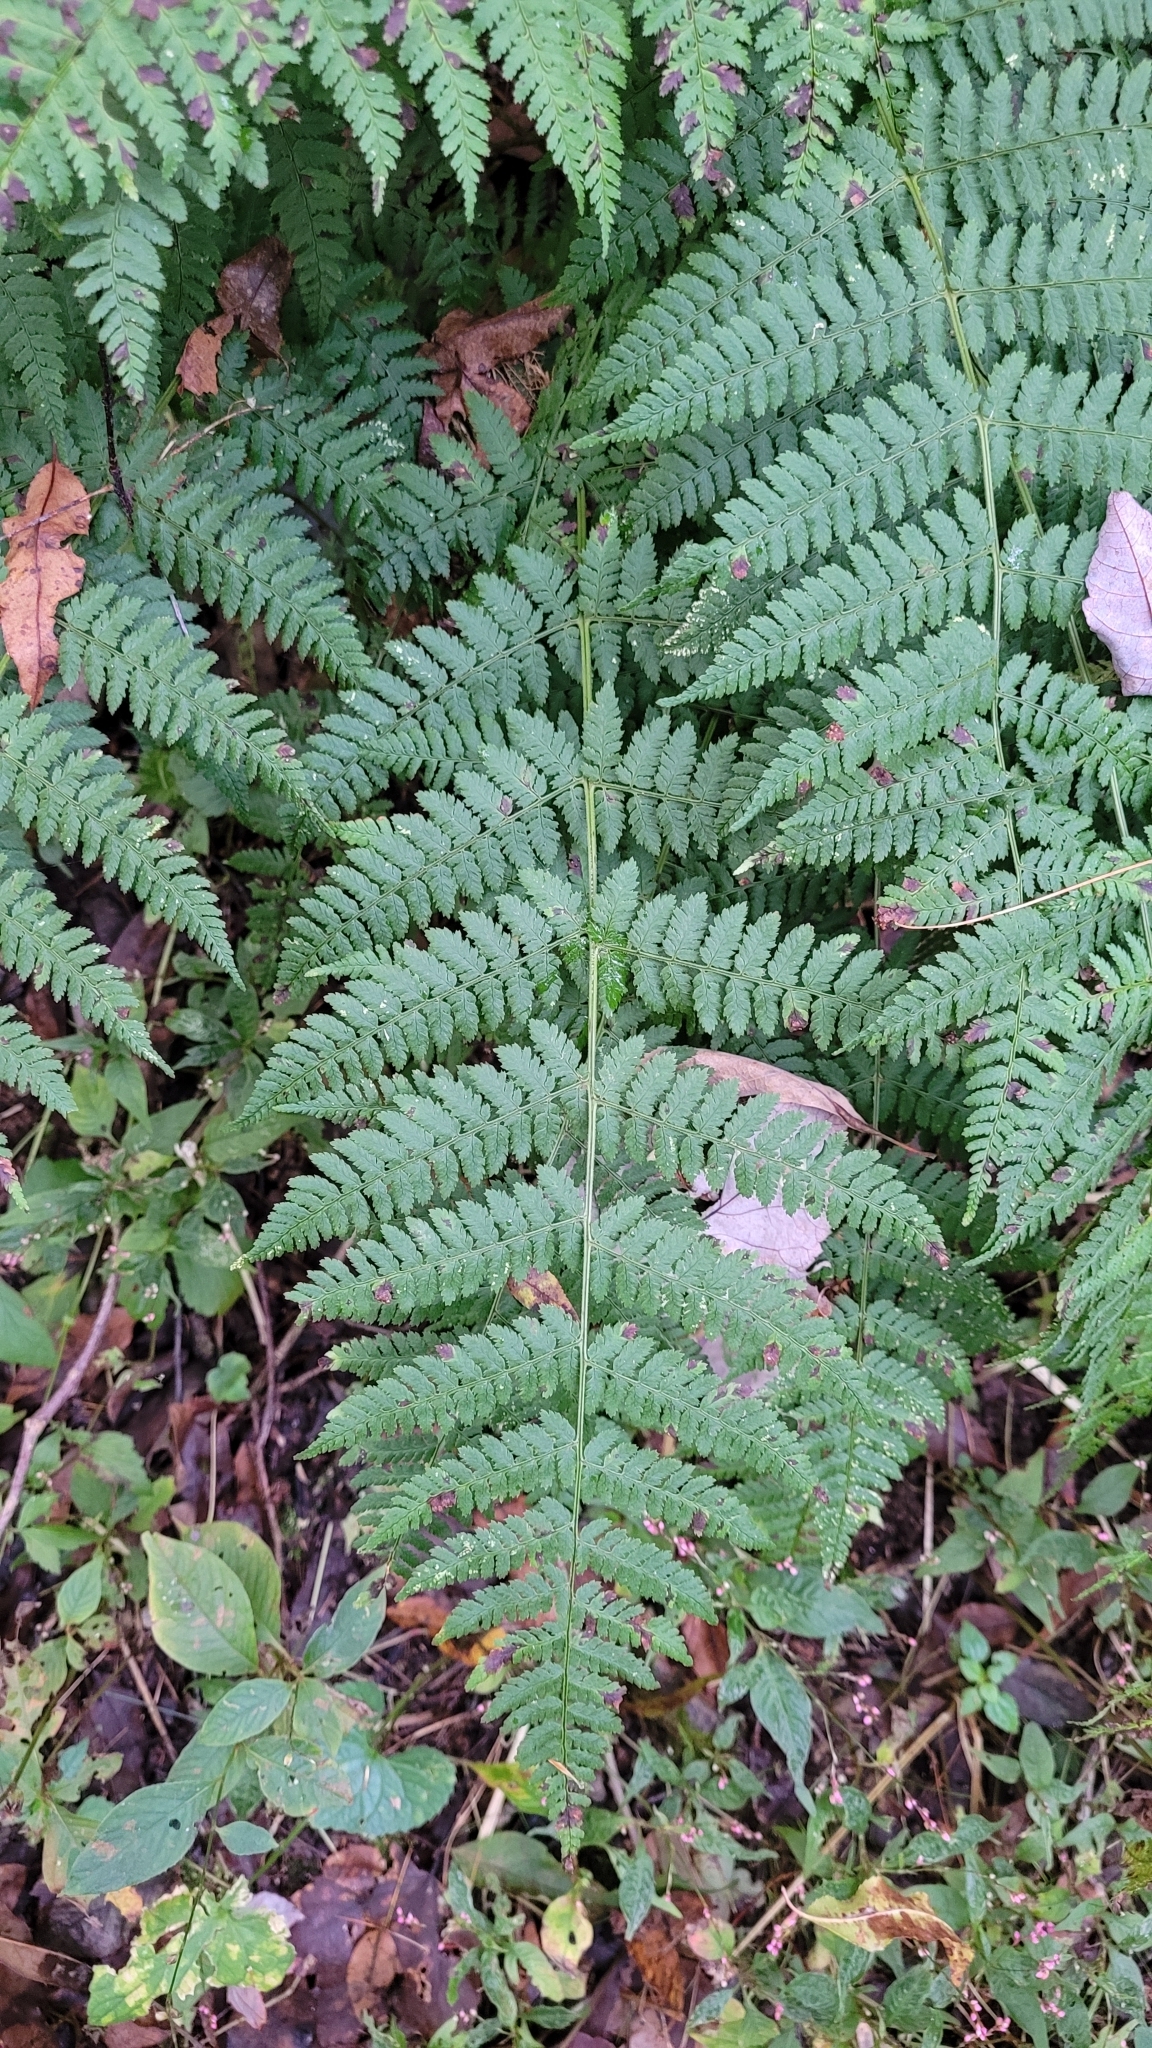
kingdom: Plantae
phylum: Tracheophyta
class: Polypodiopsida
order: Polypodiales
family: Dryopteridaceae
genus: Dryopteris
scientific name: Dryopteris intermedia
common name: Evergreen wood fern
